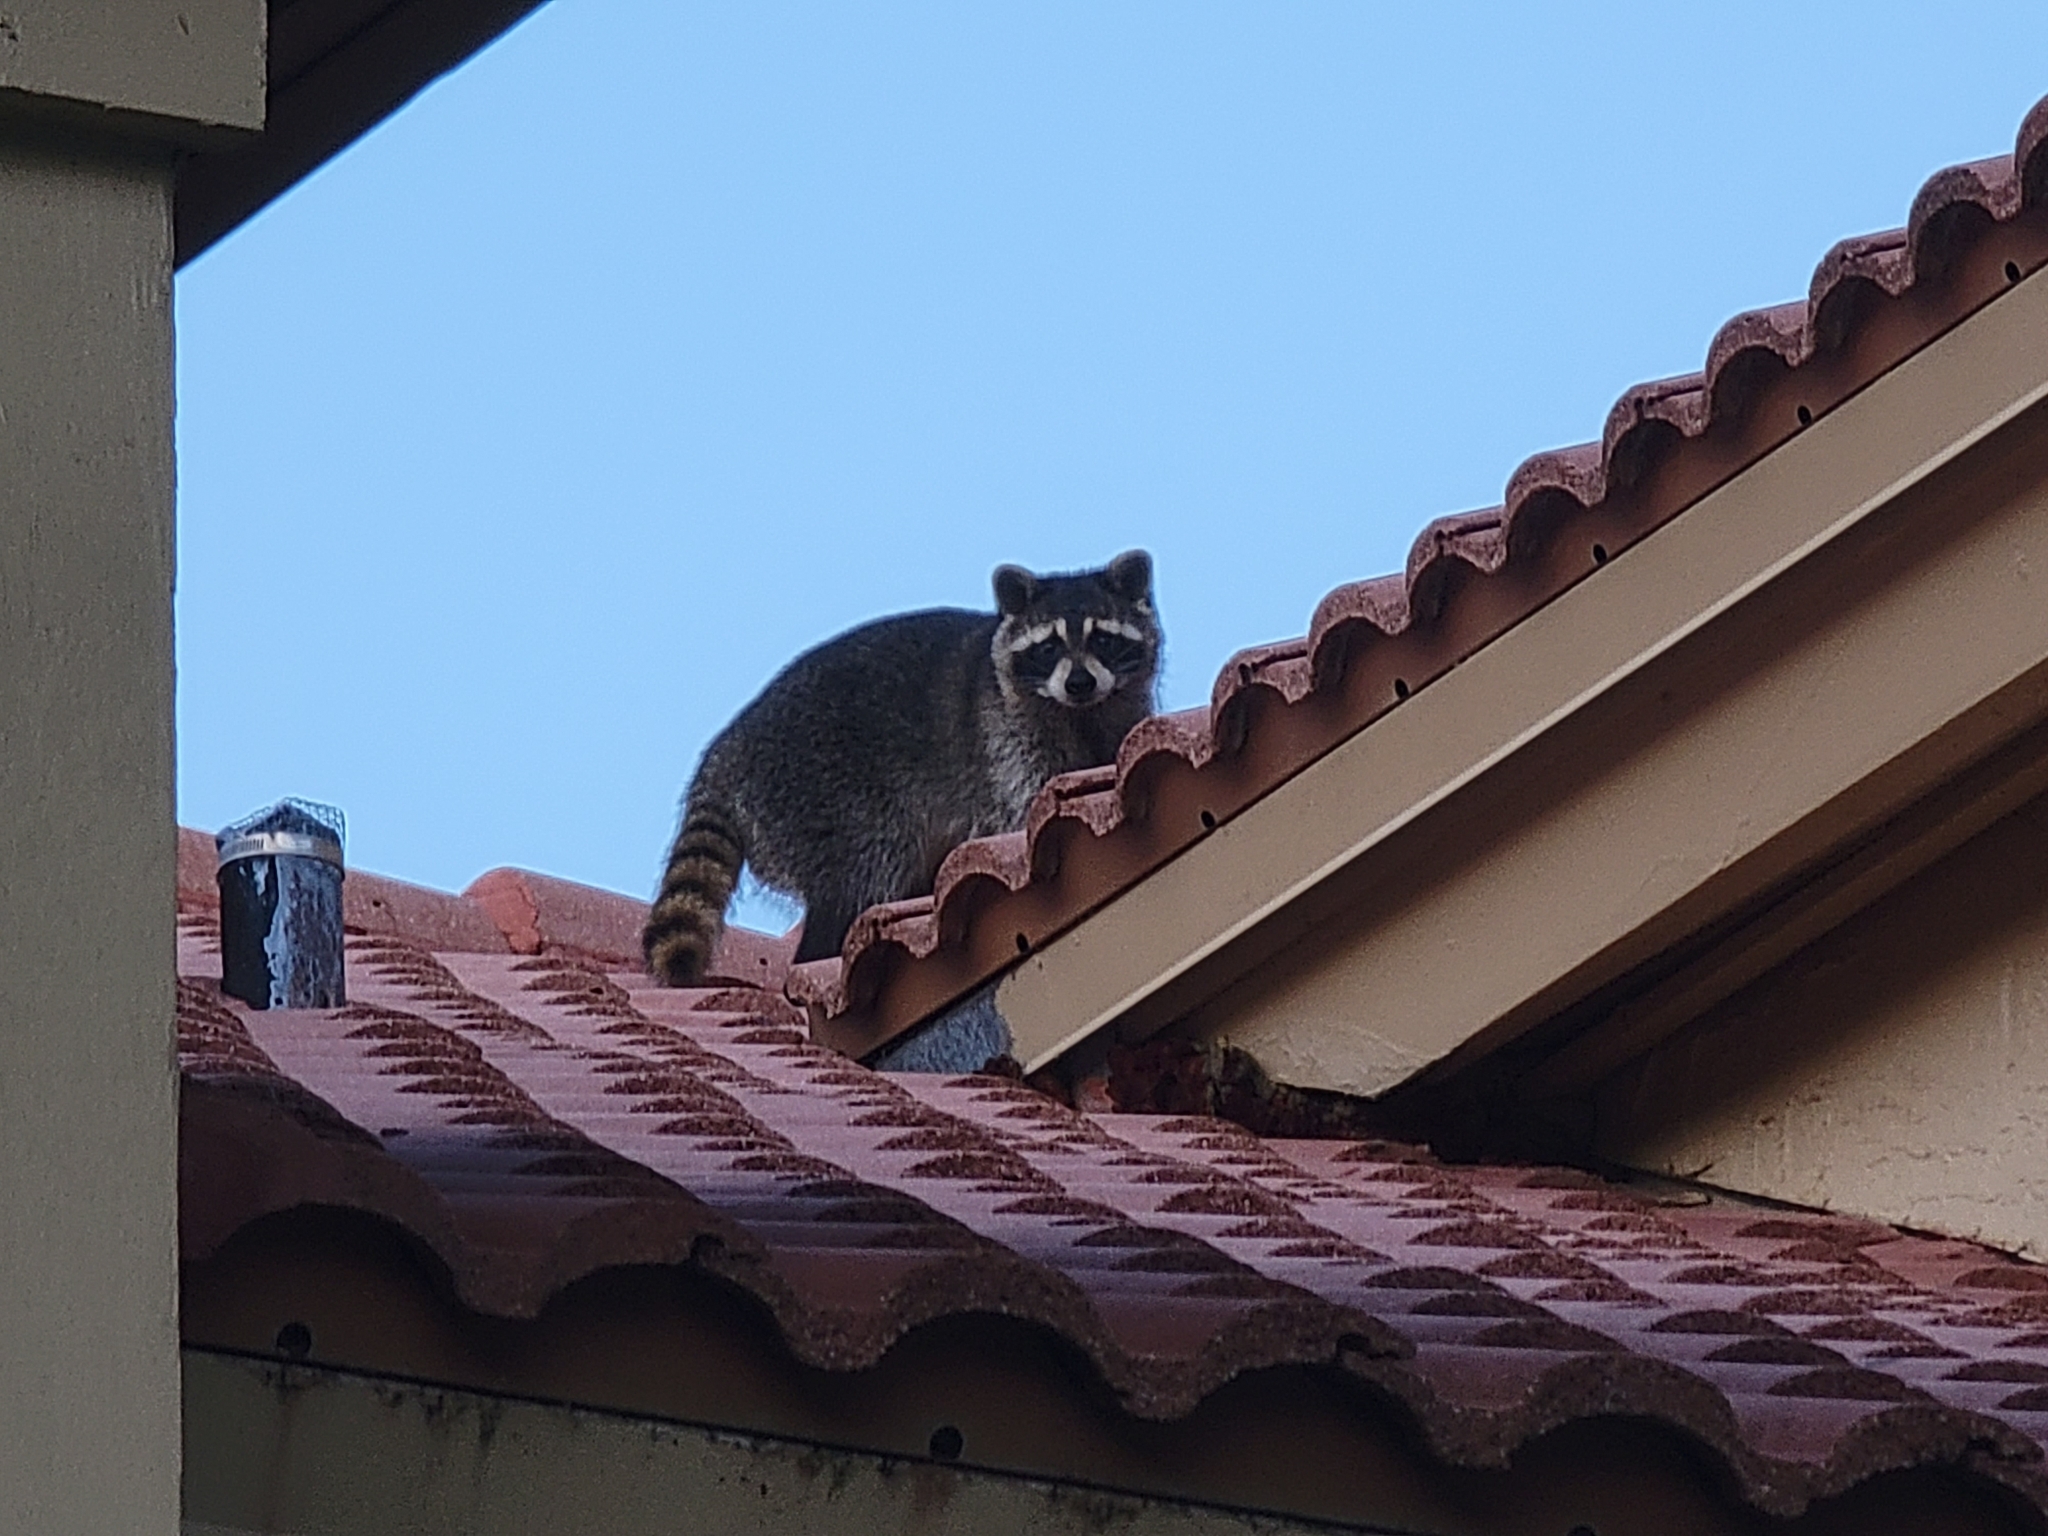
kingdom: Animalia
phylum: Chordata
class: Mammalia
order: Carnivora
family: Procyonidae
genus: Procyon
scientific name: Procyon lotor
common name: Raccoon
